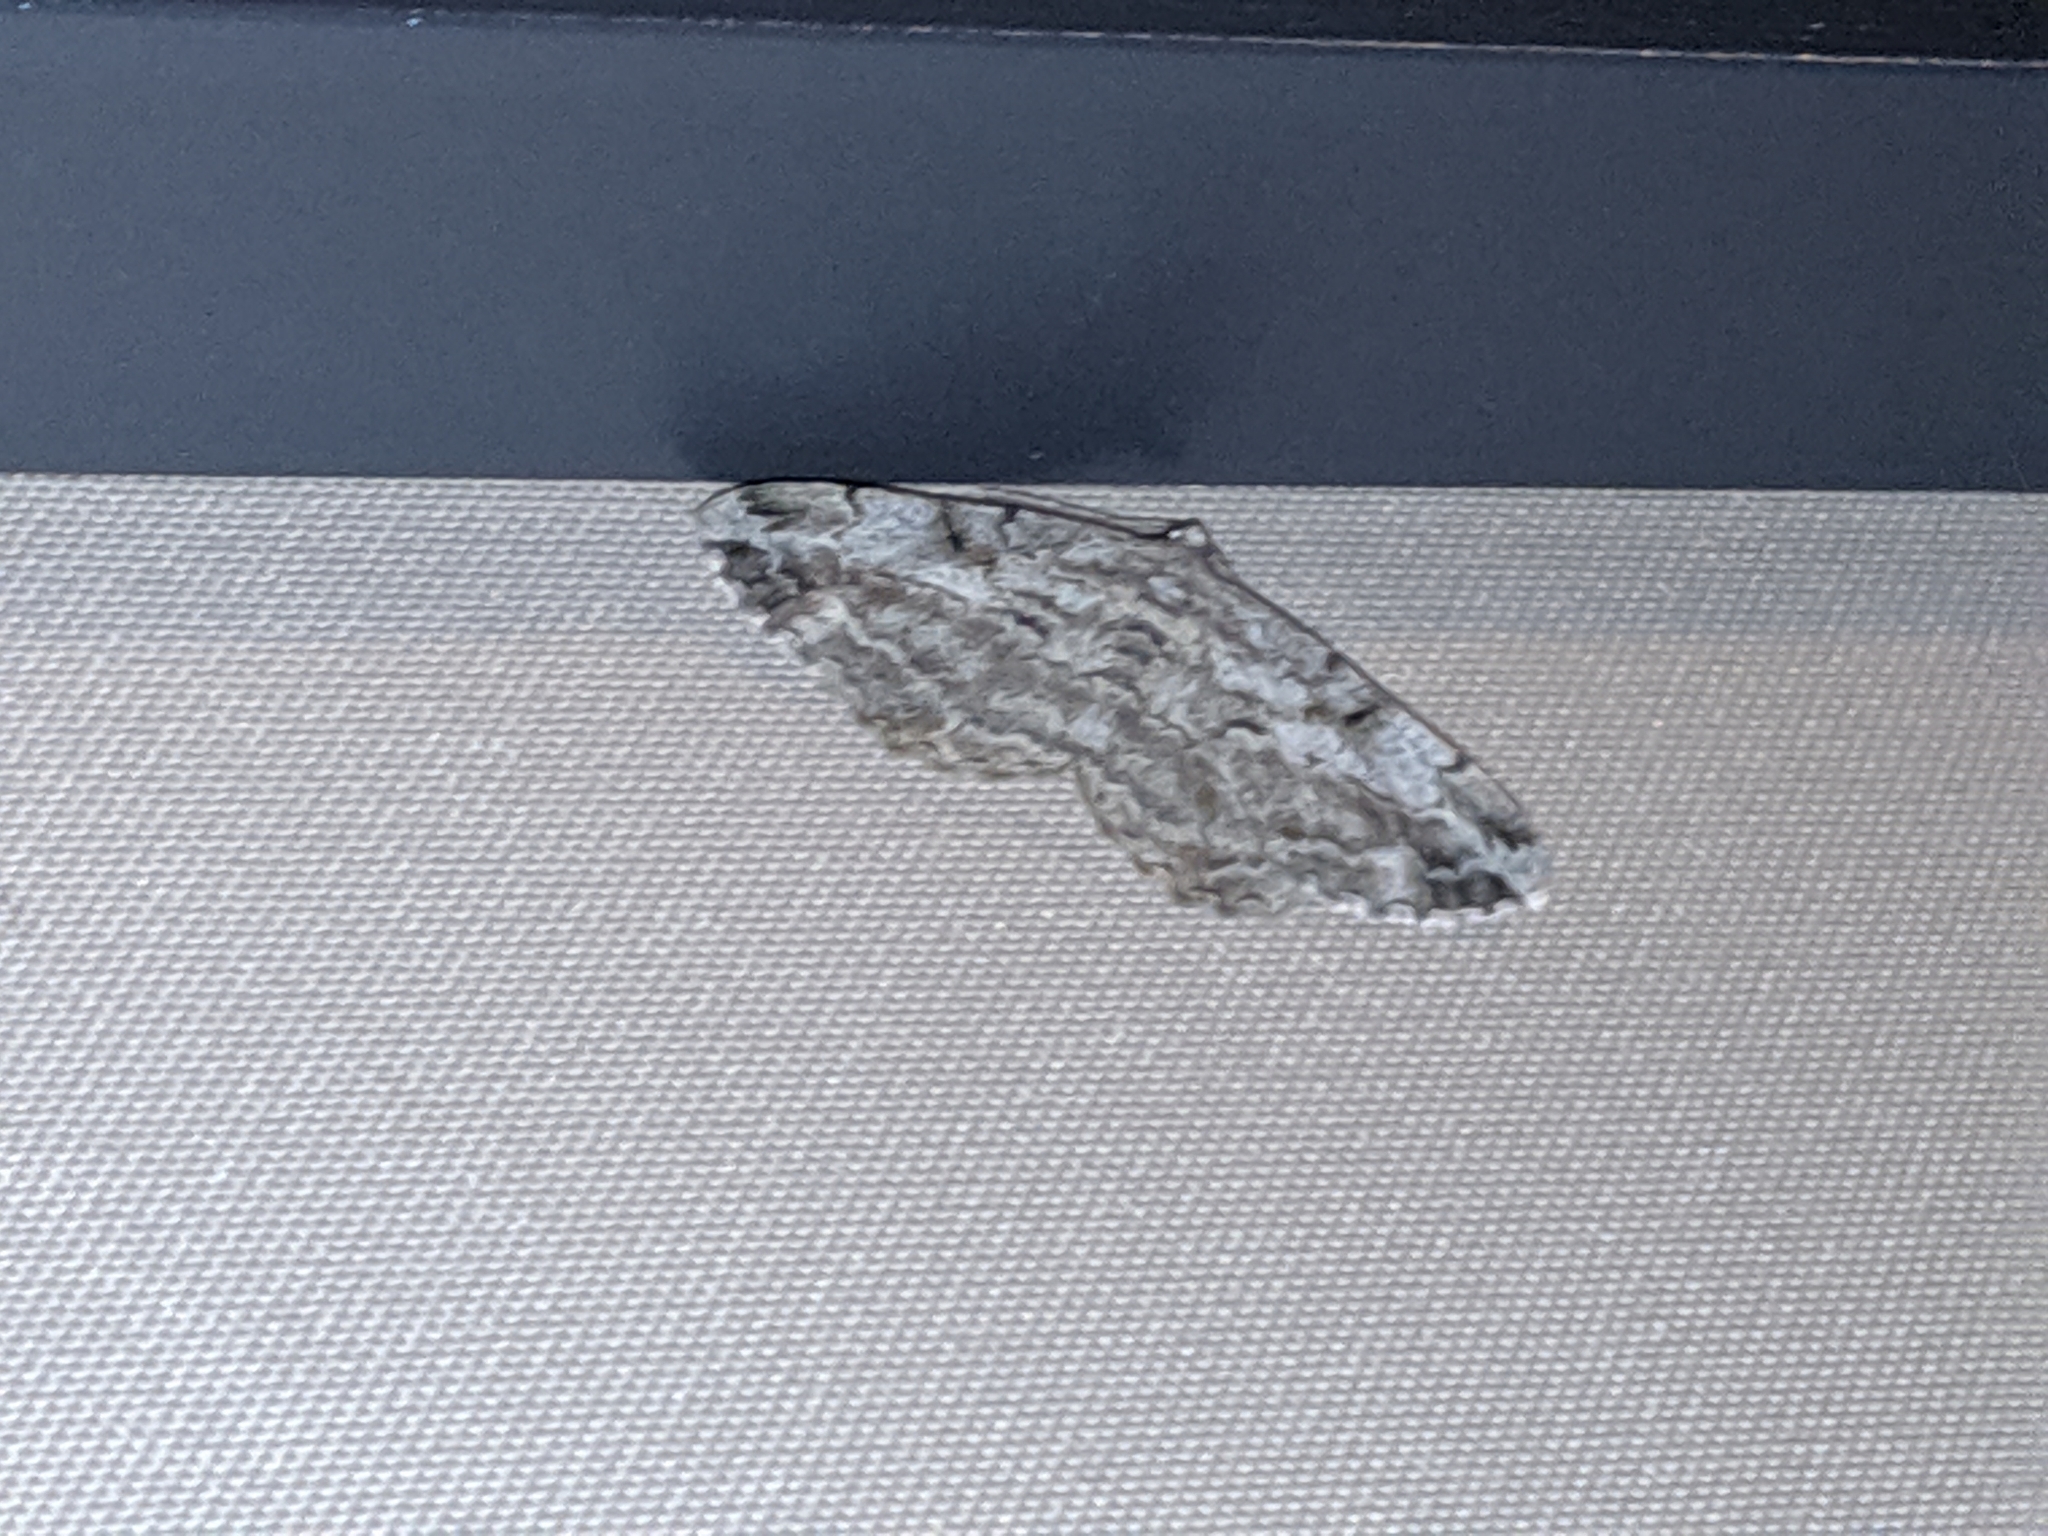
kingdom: Animalia
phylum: Arthropoda
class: Insecta
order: Lepidoptera
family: Geometridae
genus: Peribatodes
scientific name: Peribatodes rhomboidaria
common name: Willow beauty
